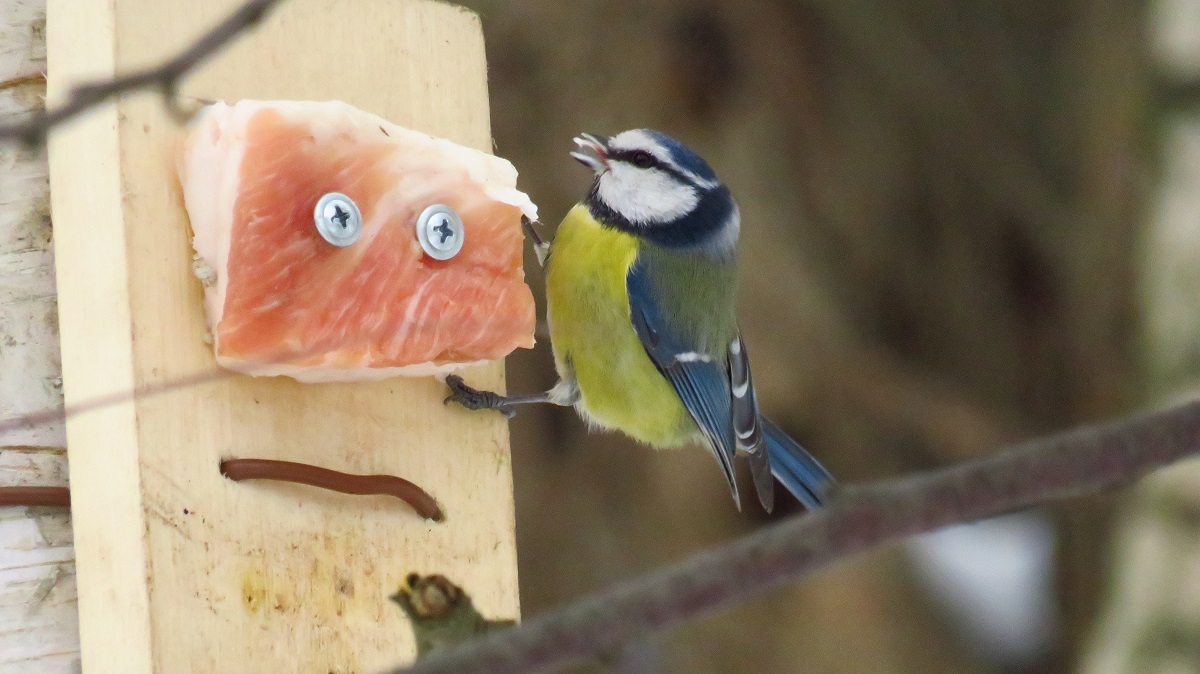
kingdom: Animalia
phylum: Chordata
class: Aves
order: Passeriformes
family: Paridae
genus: Cyanistes
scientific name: Cyanistes caeruleus
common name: Eurasian blue tit
